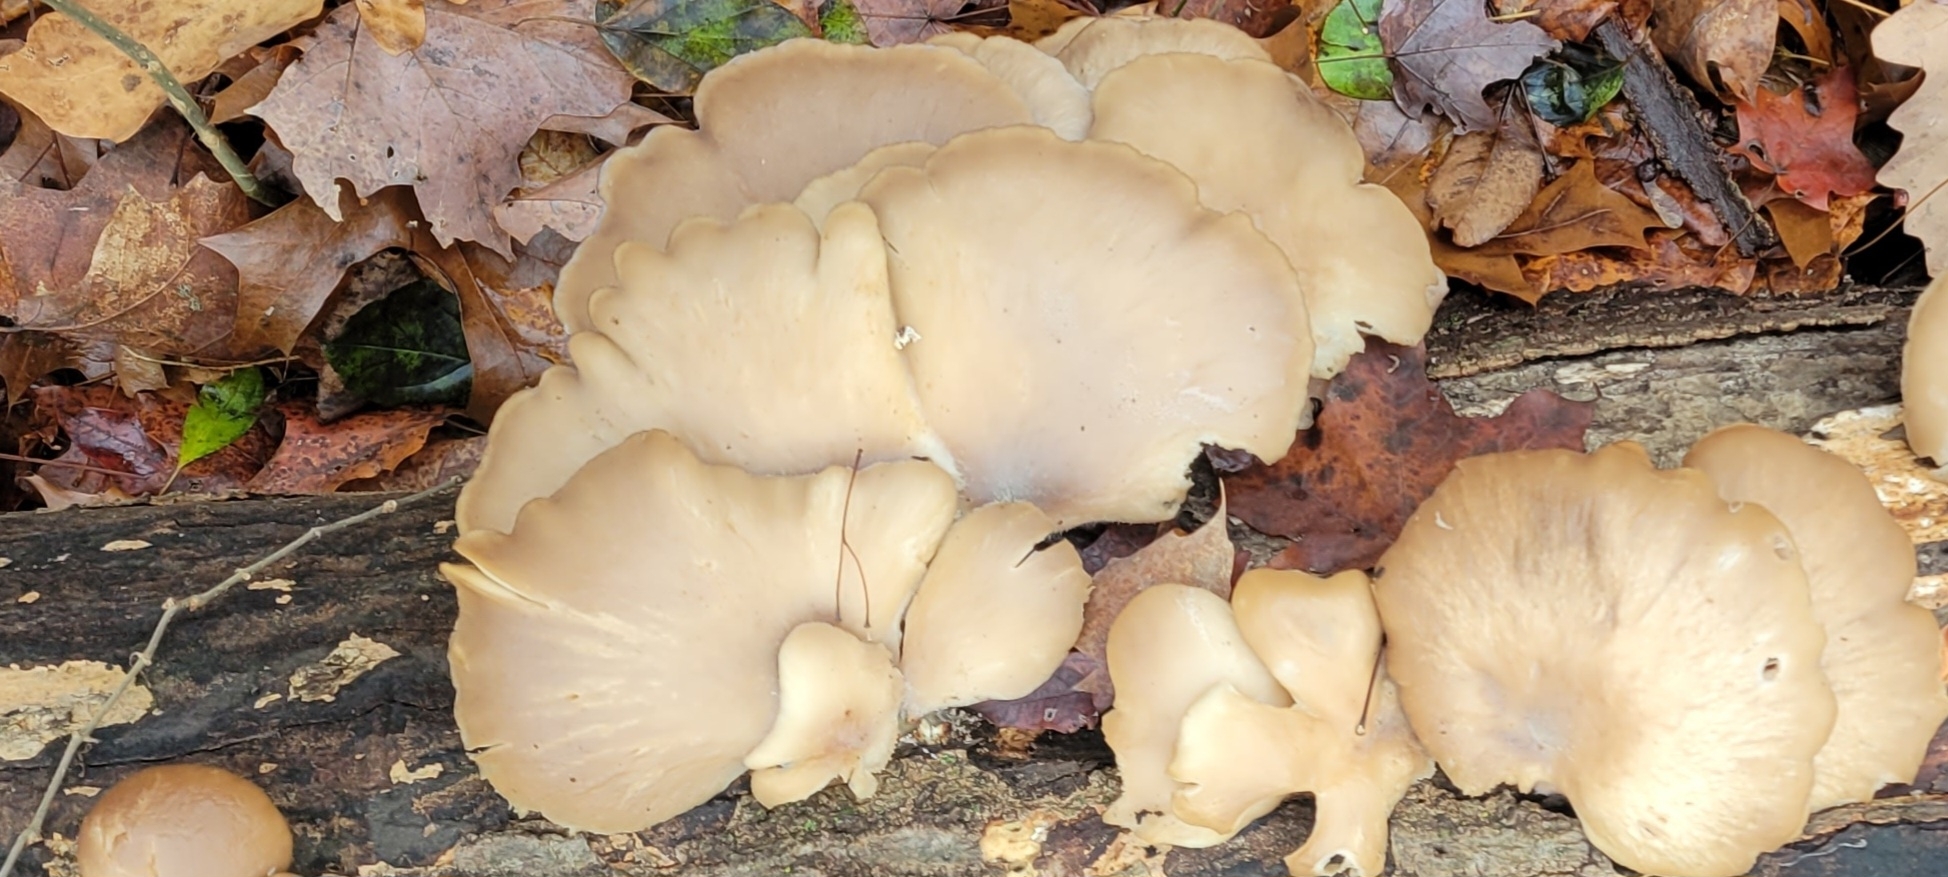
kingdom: Fungi
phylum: Basidiomycota
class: Agaricomycetes
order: Agaricales
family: Pleurotaceae
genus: Pleurotus
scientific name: Pleurotus ostreatus
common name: Oyster mushroom
